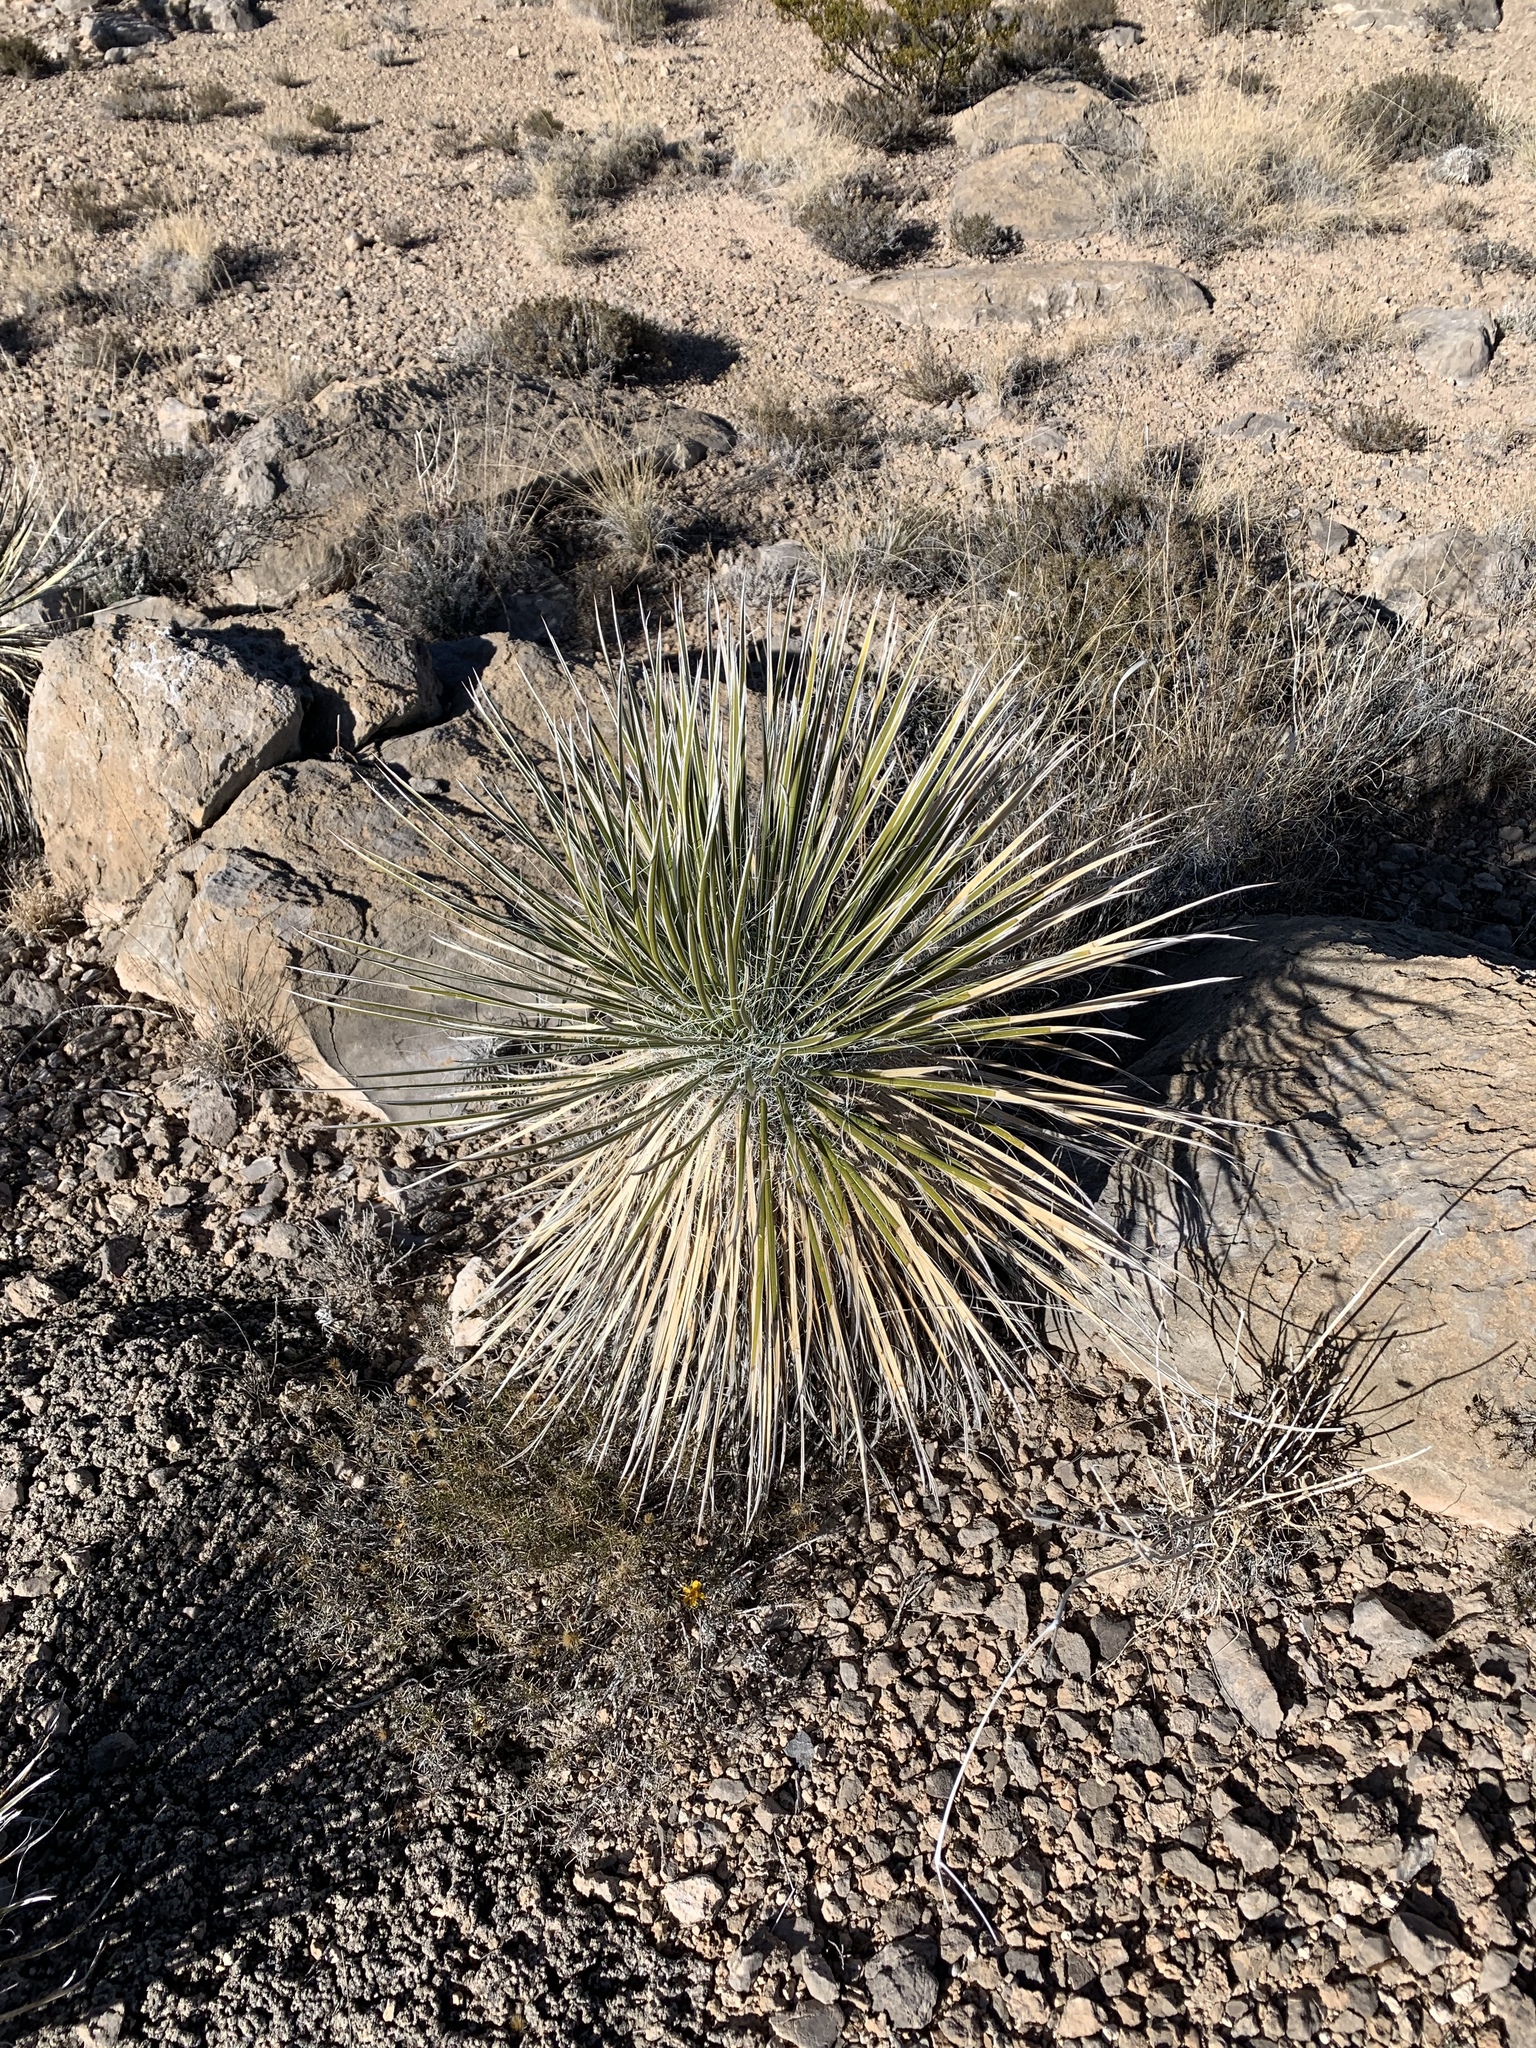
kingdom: Plantae
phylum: Tracheophyta
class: Liliopsida
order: Asparagales
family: Asparagaceae
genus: Yucca
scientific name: Yucca elata
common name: Palmella
